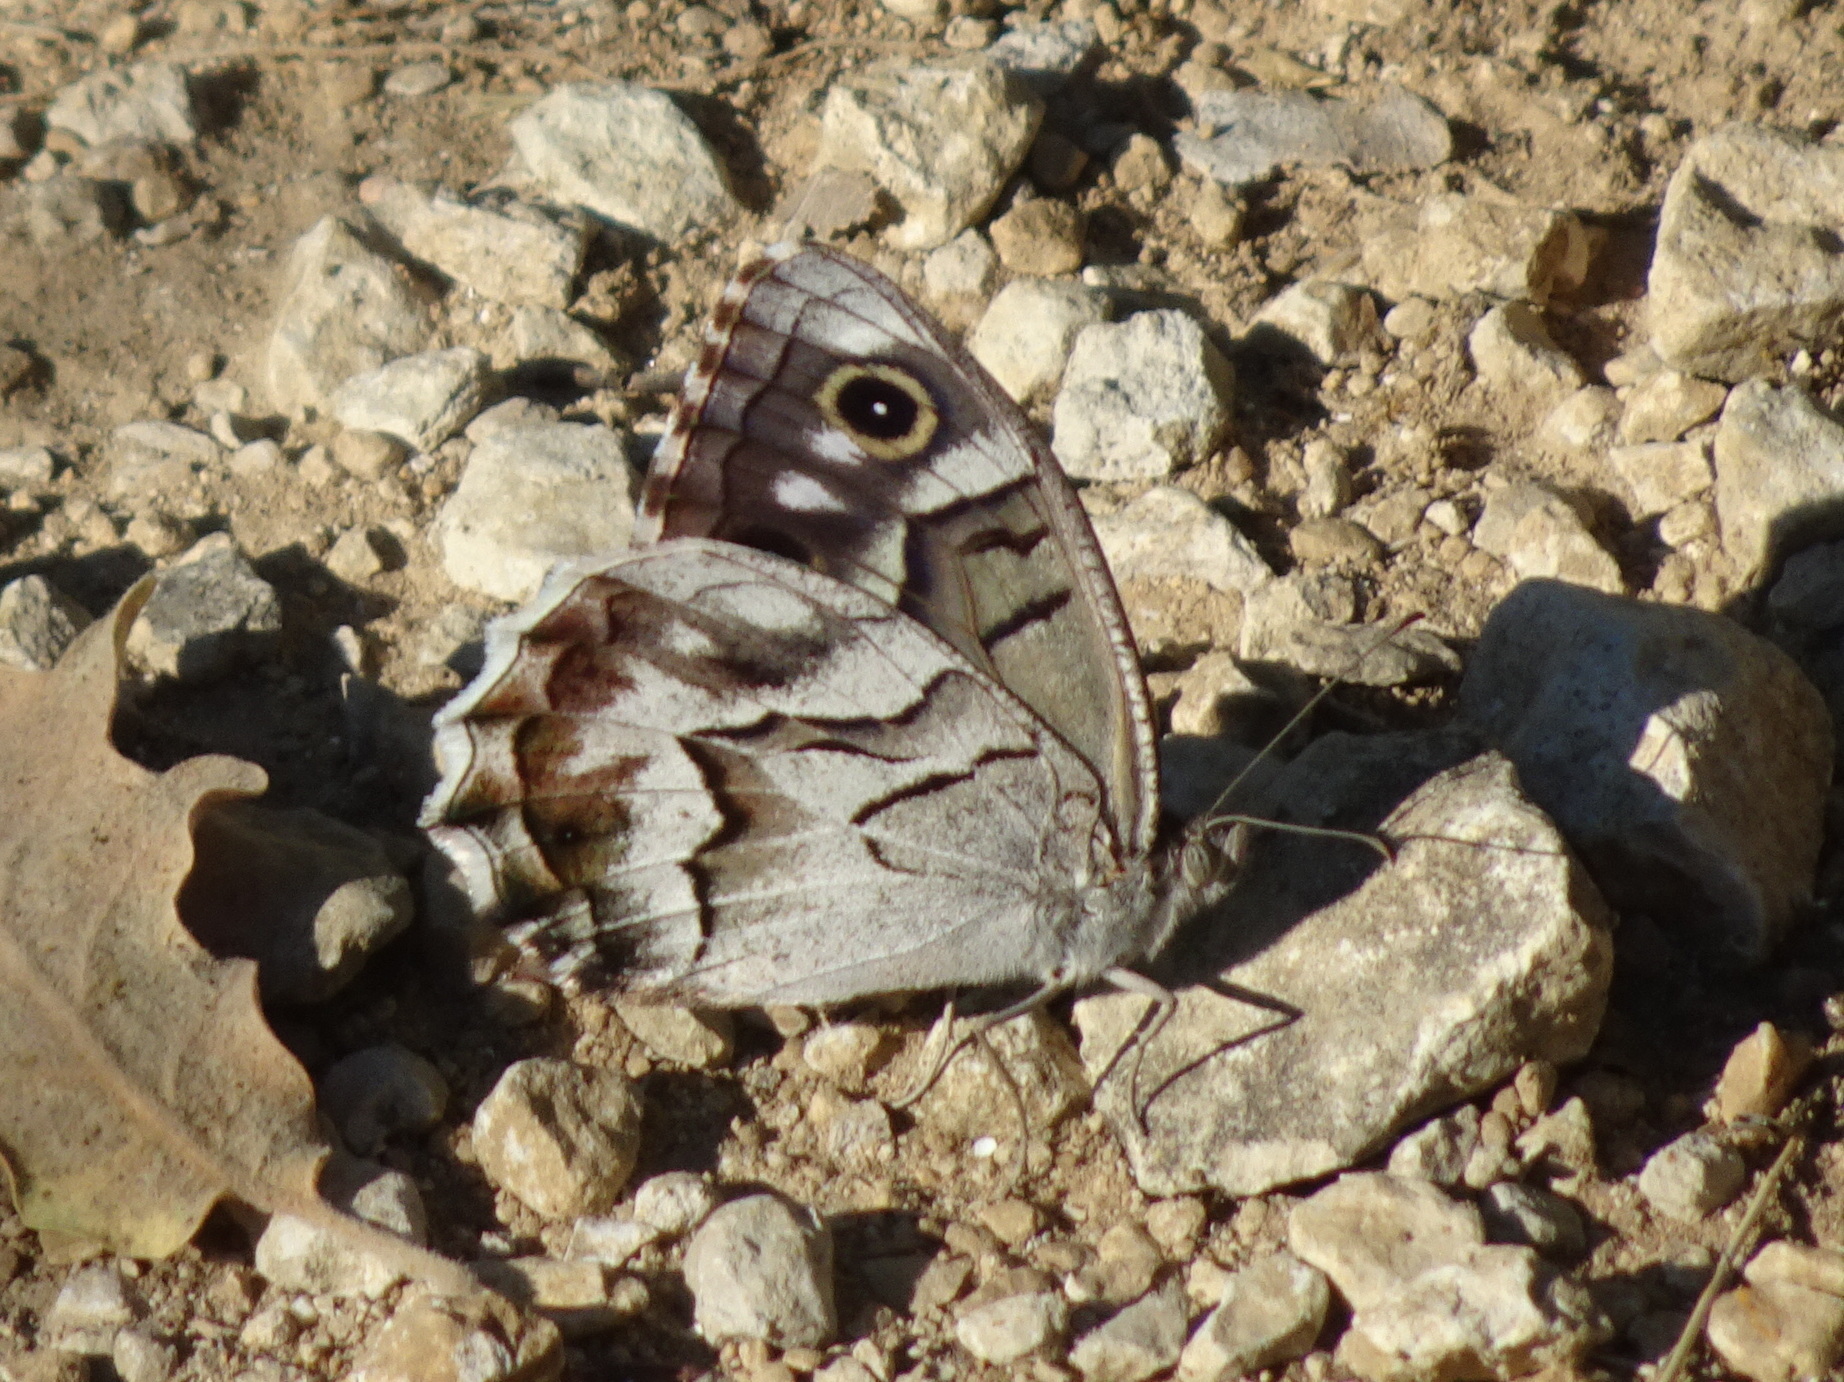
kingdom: Animalia
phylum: Arthropoda
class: Insecta
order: Lepidoptera
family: Nymphalidae
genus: Hipparchia
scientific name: Hipparchia fidia
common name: Striped grayling
